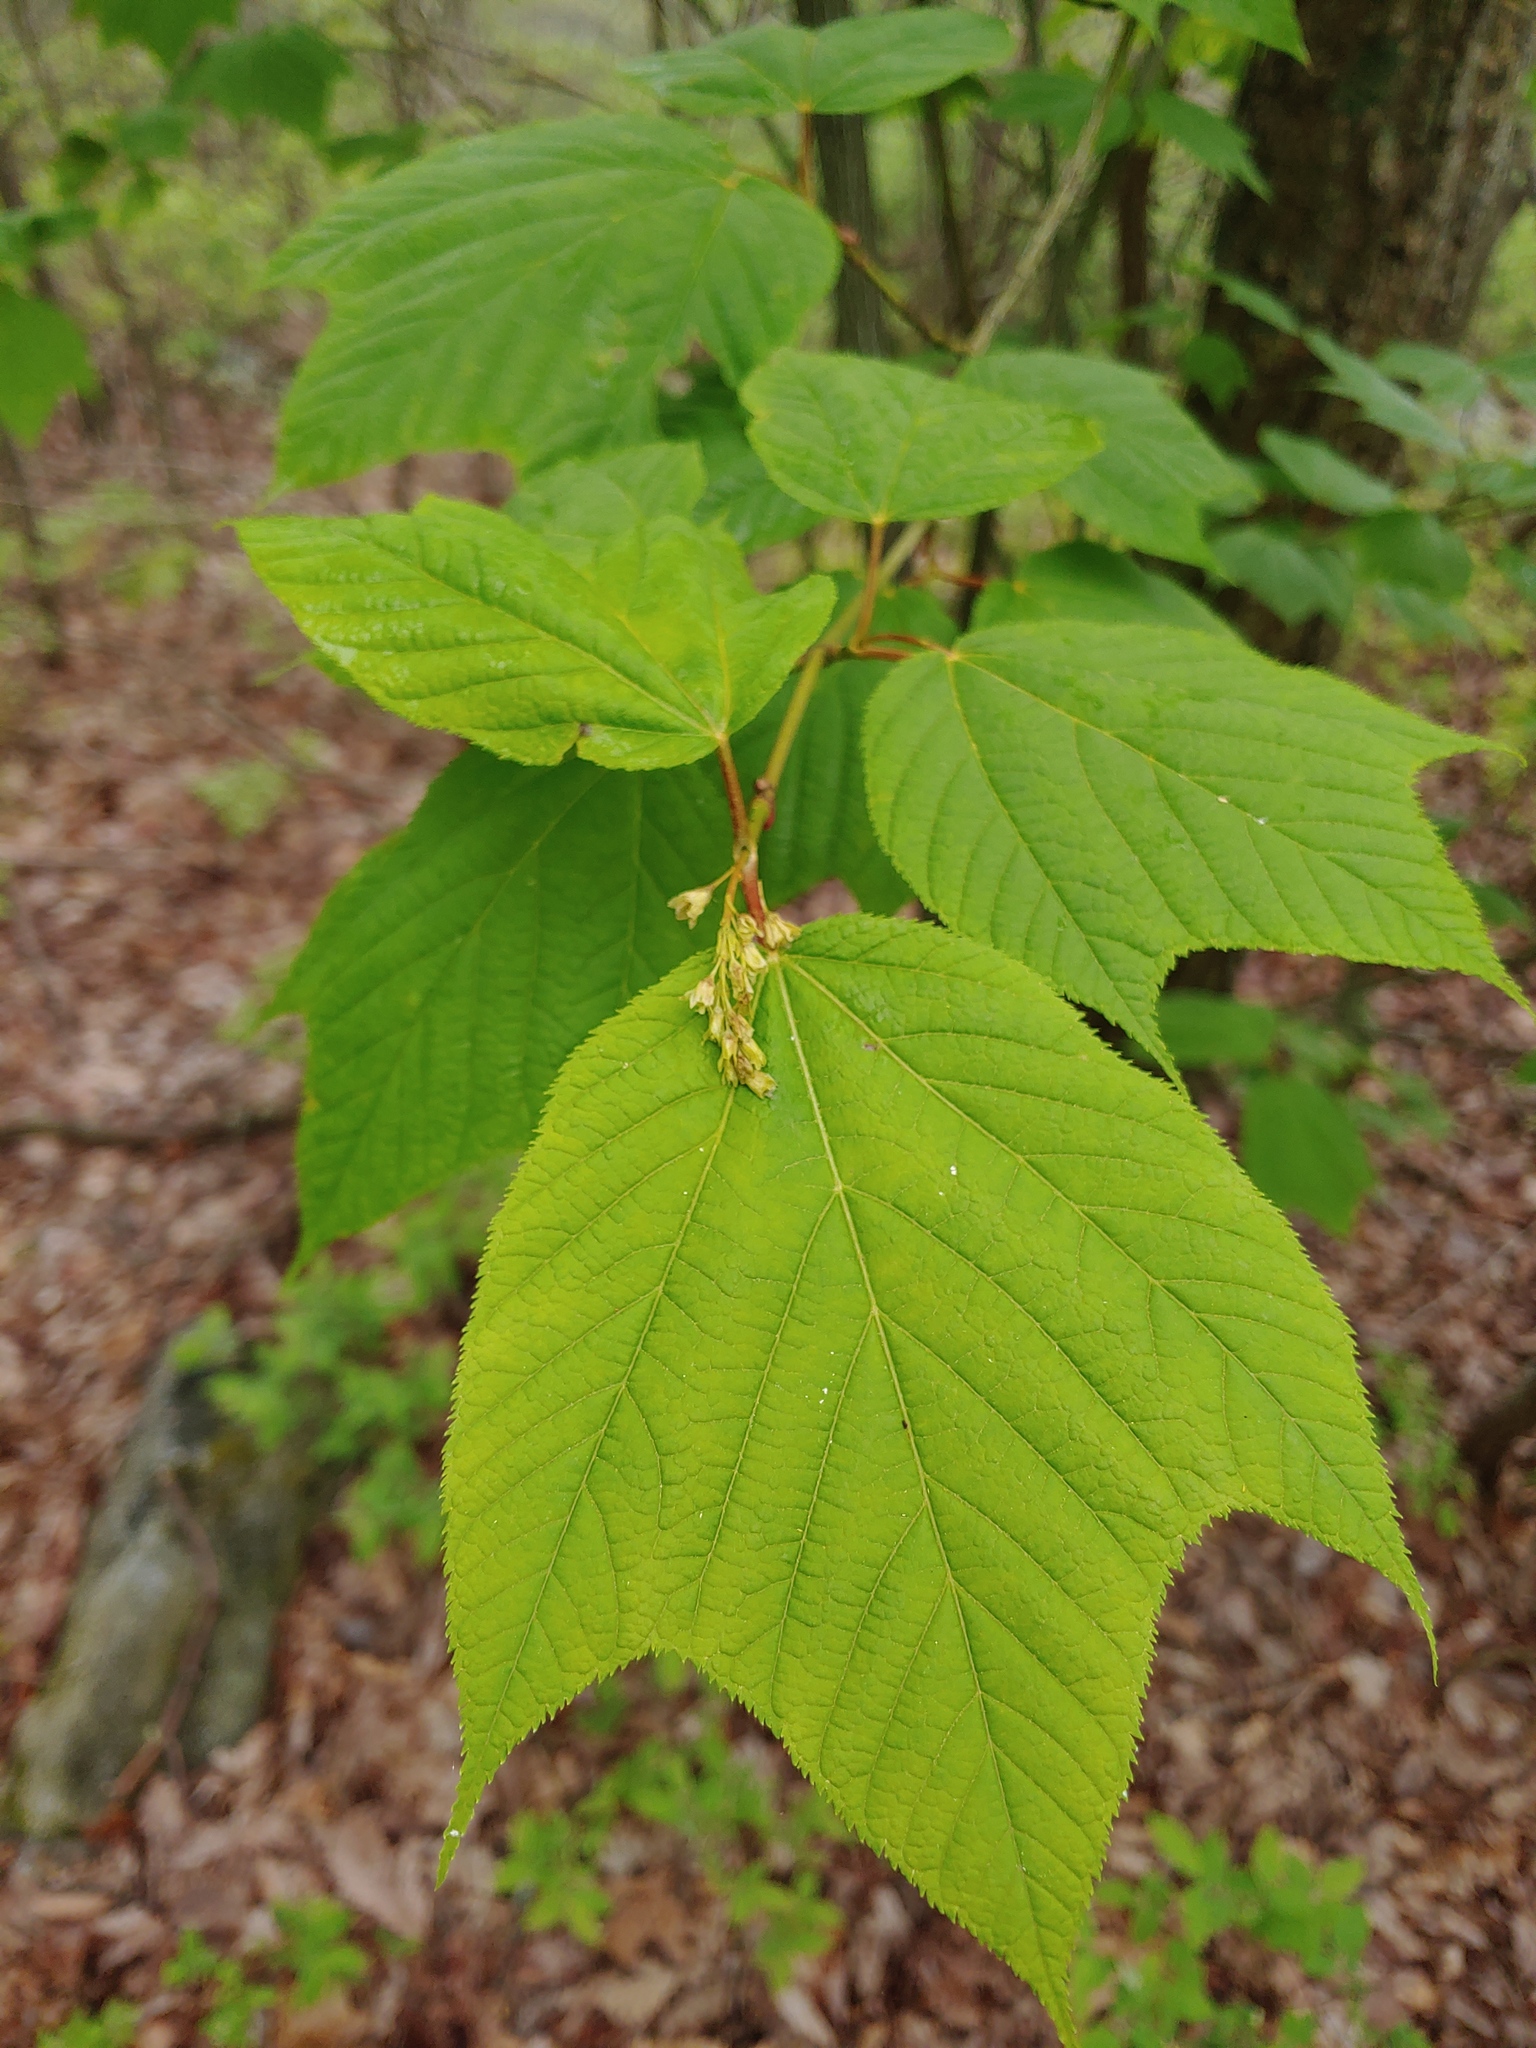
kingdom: Plantae
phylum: Tracheophyta
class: Magnoliopsida
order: Sapindales
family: Sapindaceae
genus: Acer
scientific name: Acer pensylvanicum
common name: Moosewood
